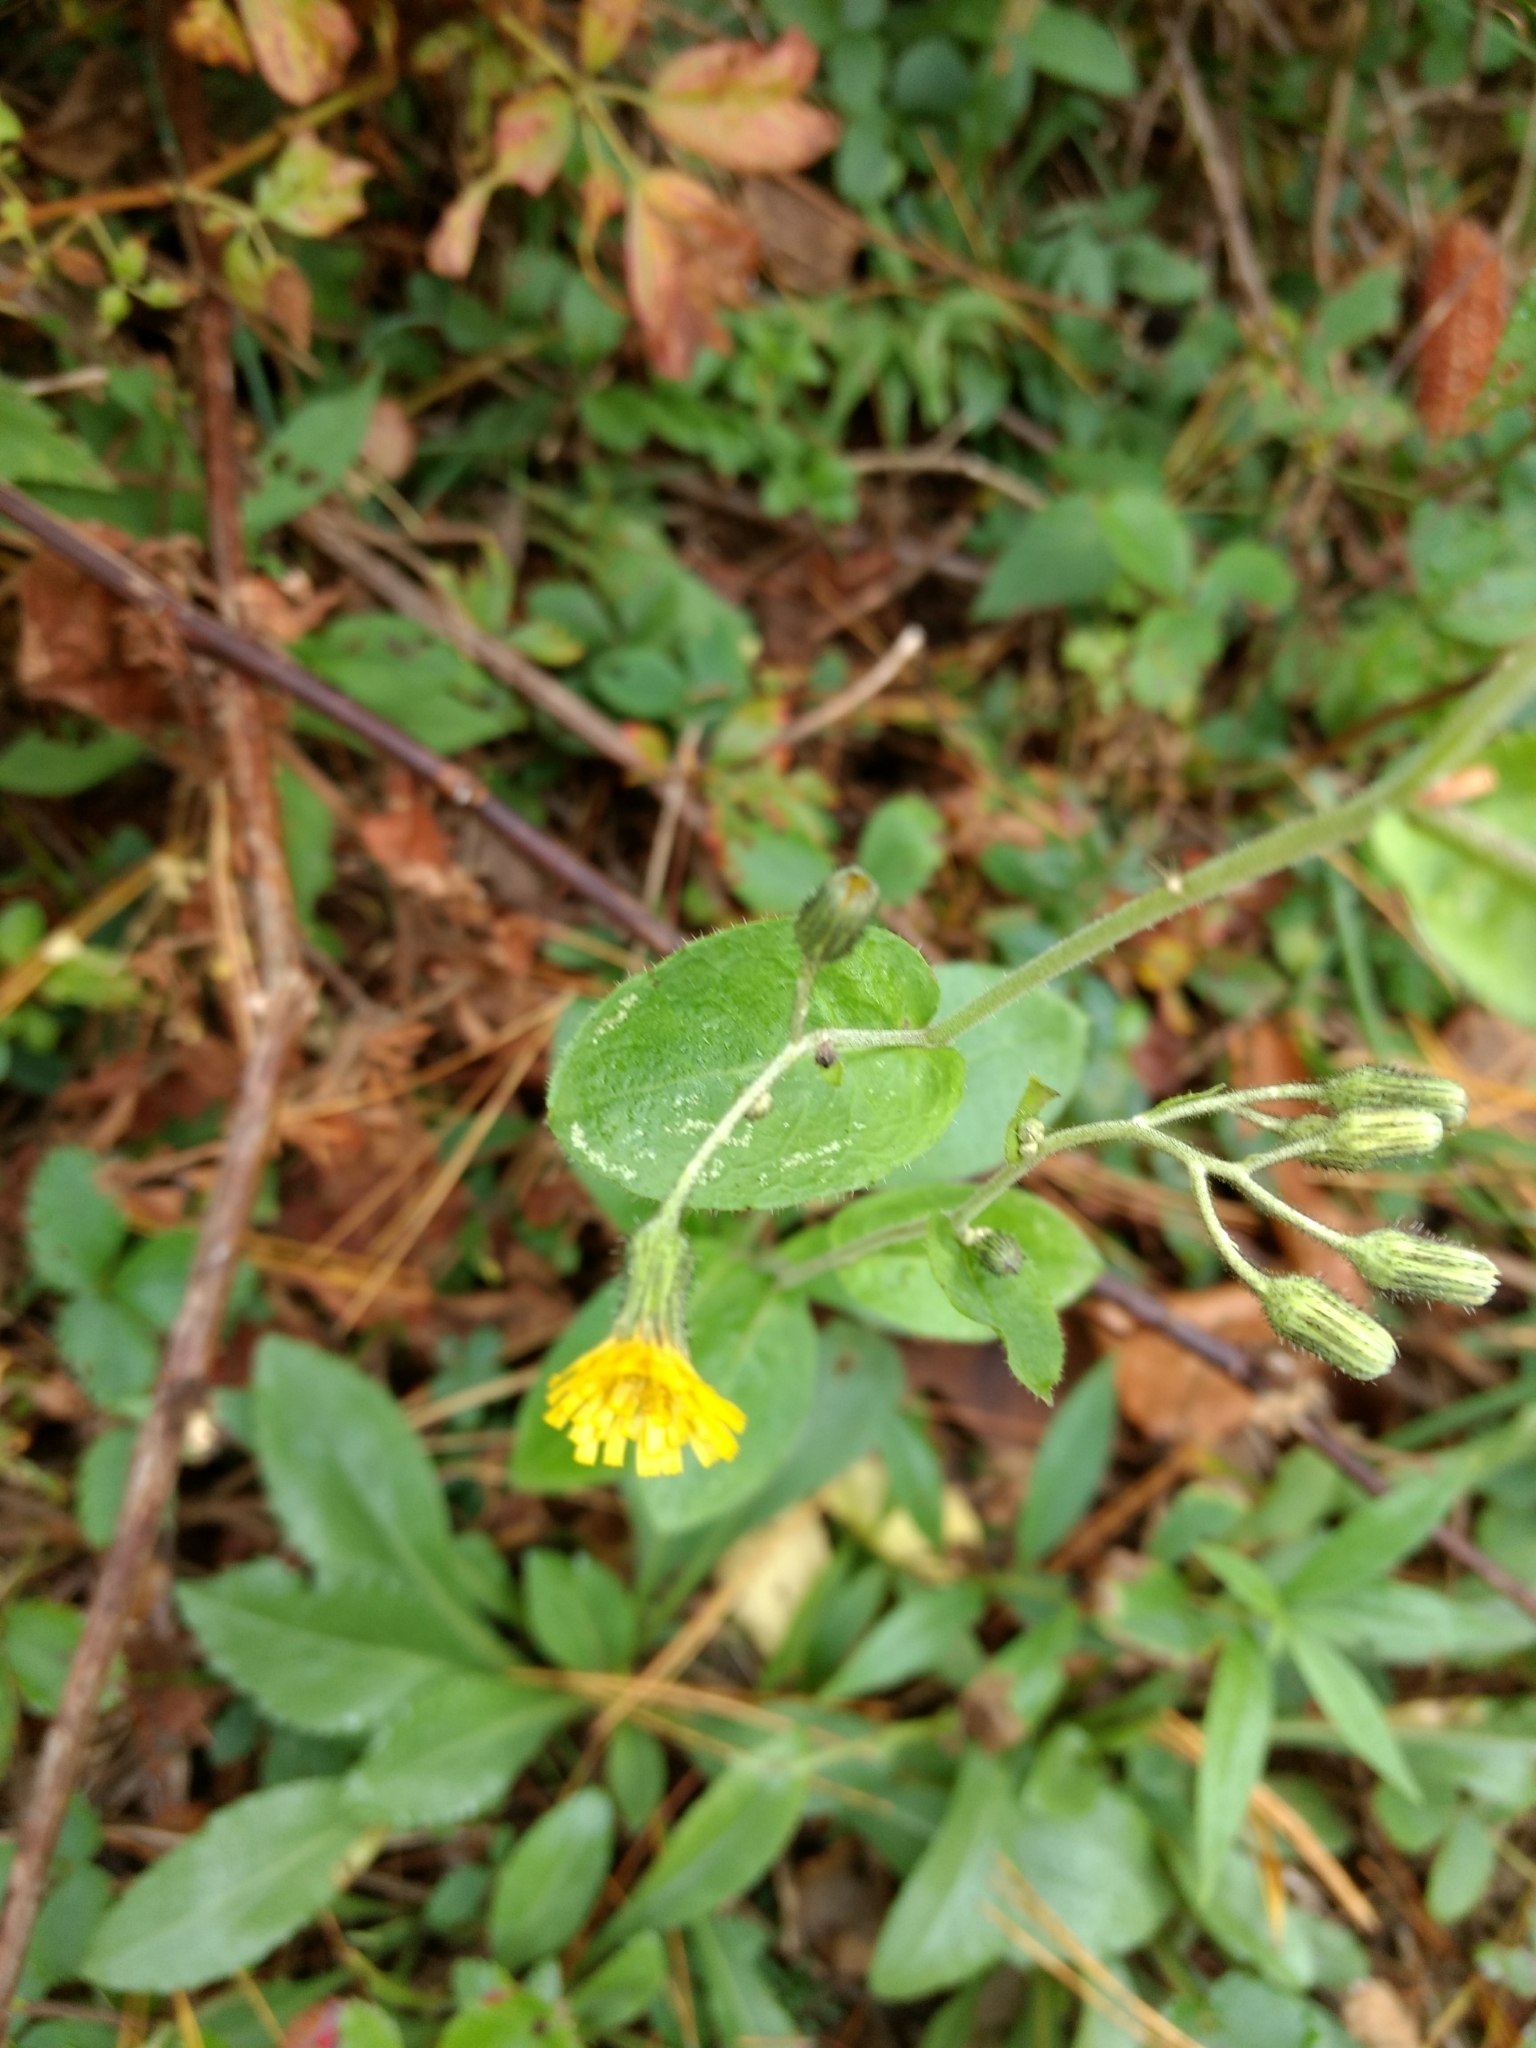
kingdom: Plantae
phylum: Tracheophyta
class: Magnoliopsida
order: Asterales
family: Asteraceae
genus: Hieracium
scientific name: Hieracium scabrum
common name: Rough hawkweed
